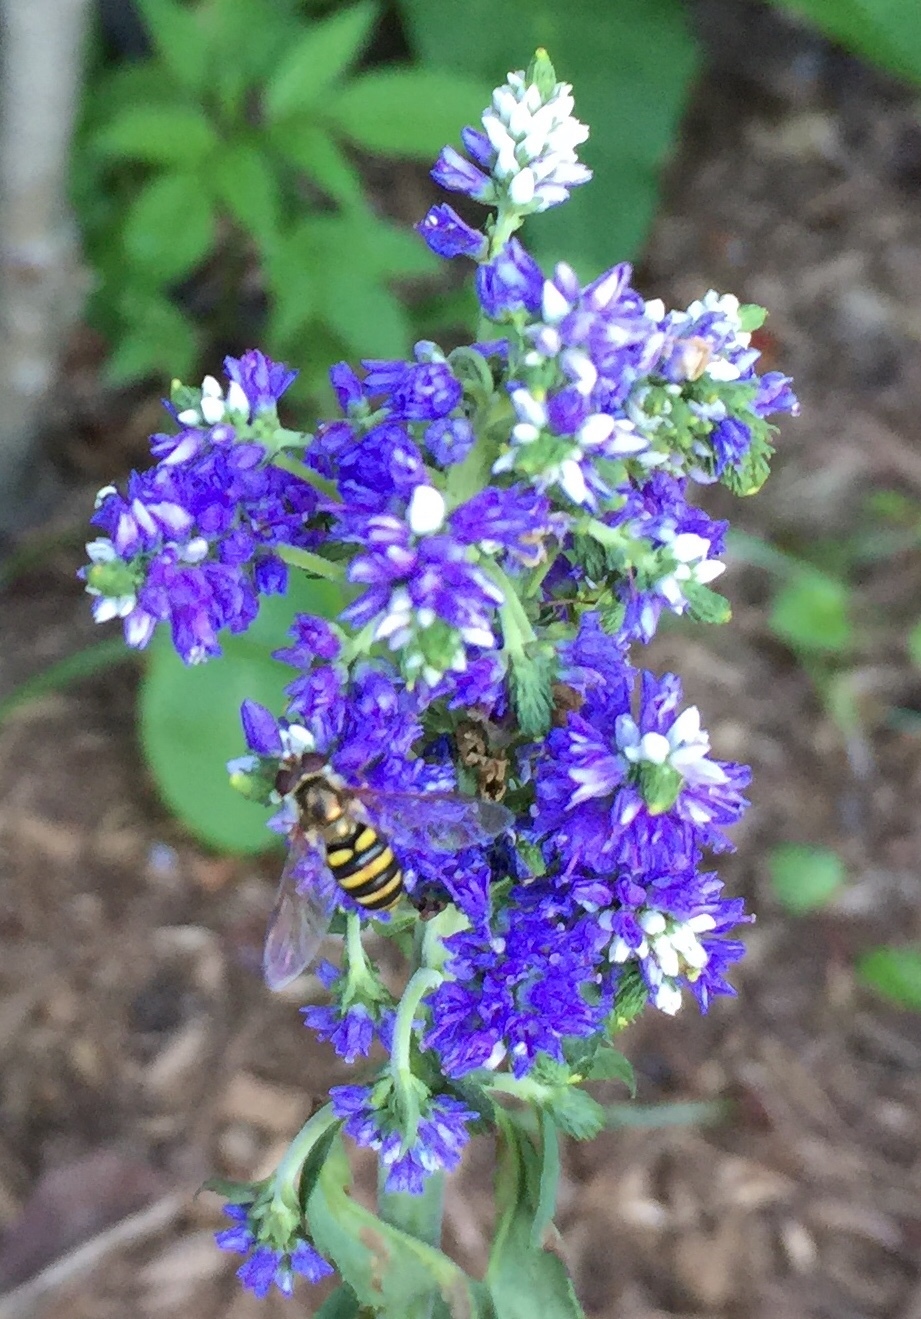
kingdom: Animalia
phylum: Arthropoda
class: Insecta
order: Diptera
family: Syrphidae
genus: Eupeodes
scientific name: Eupeodes
